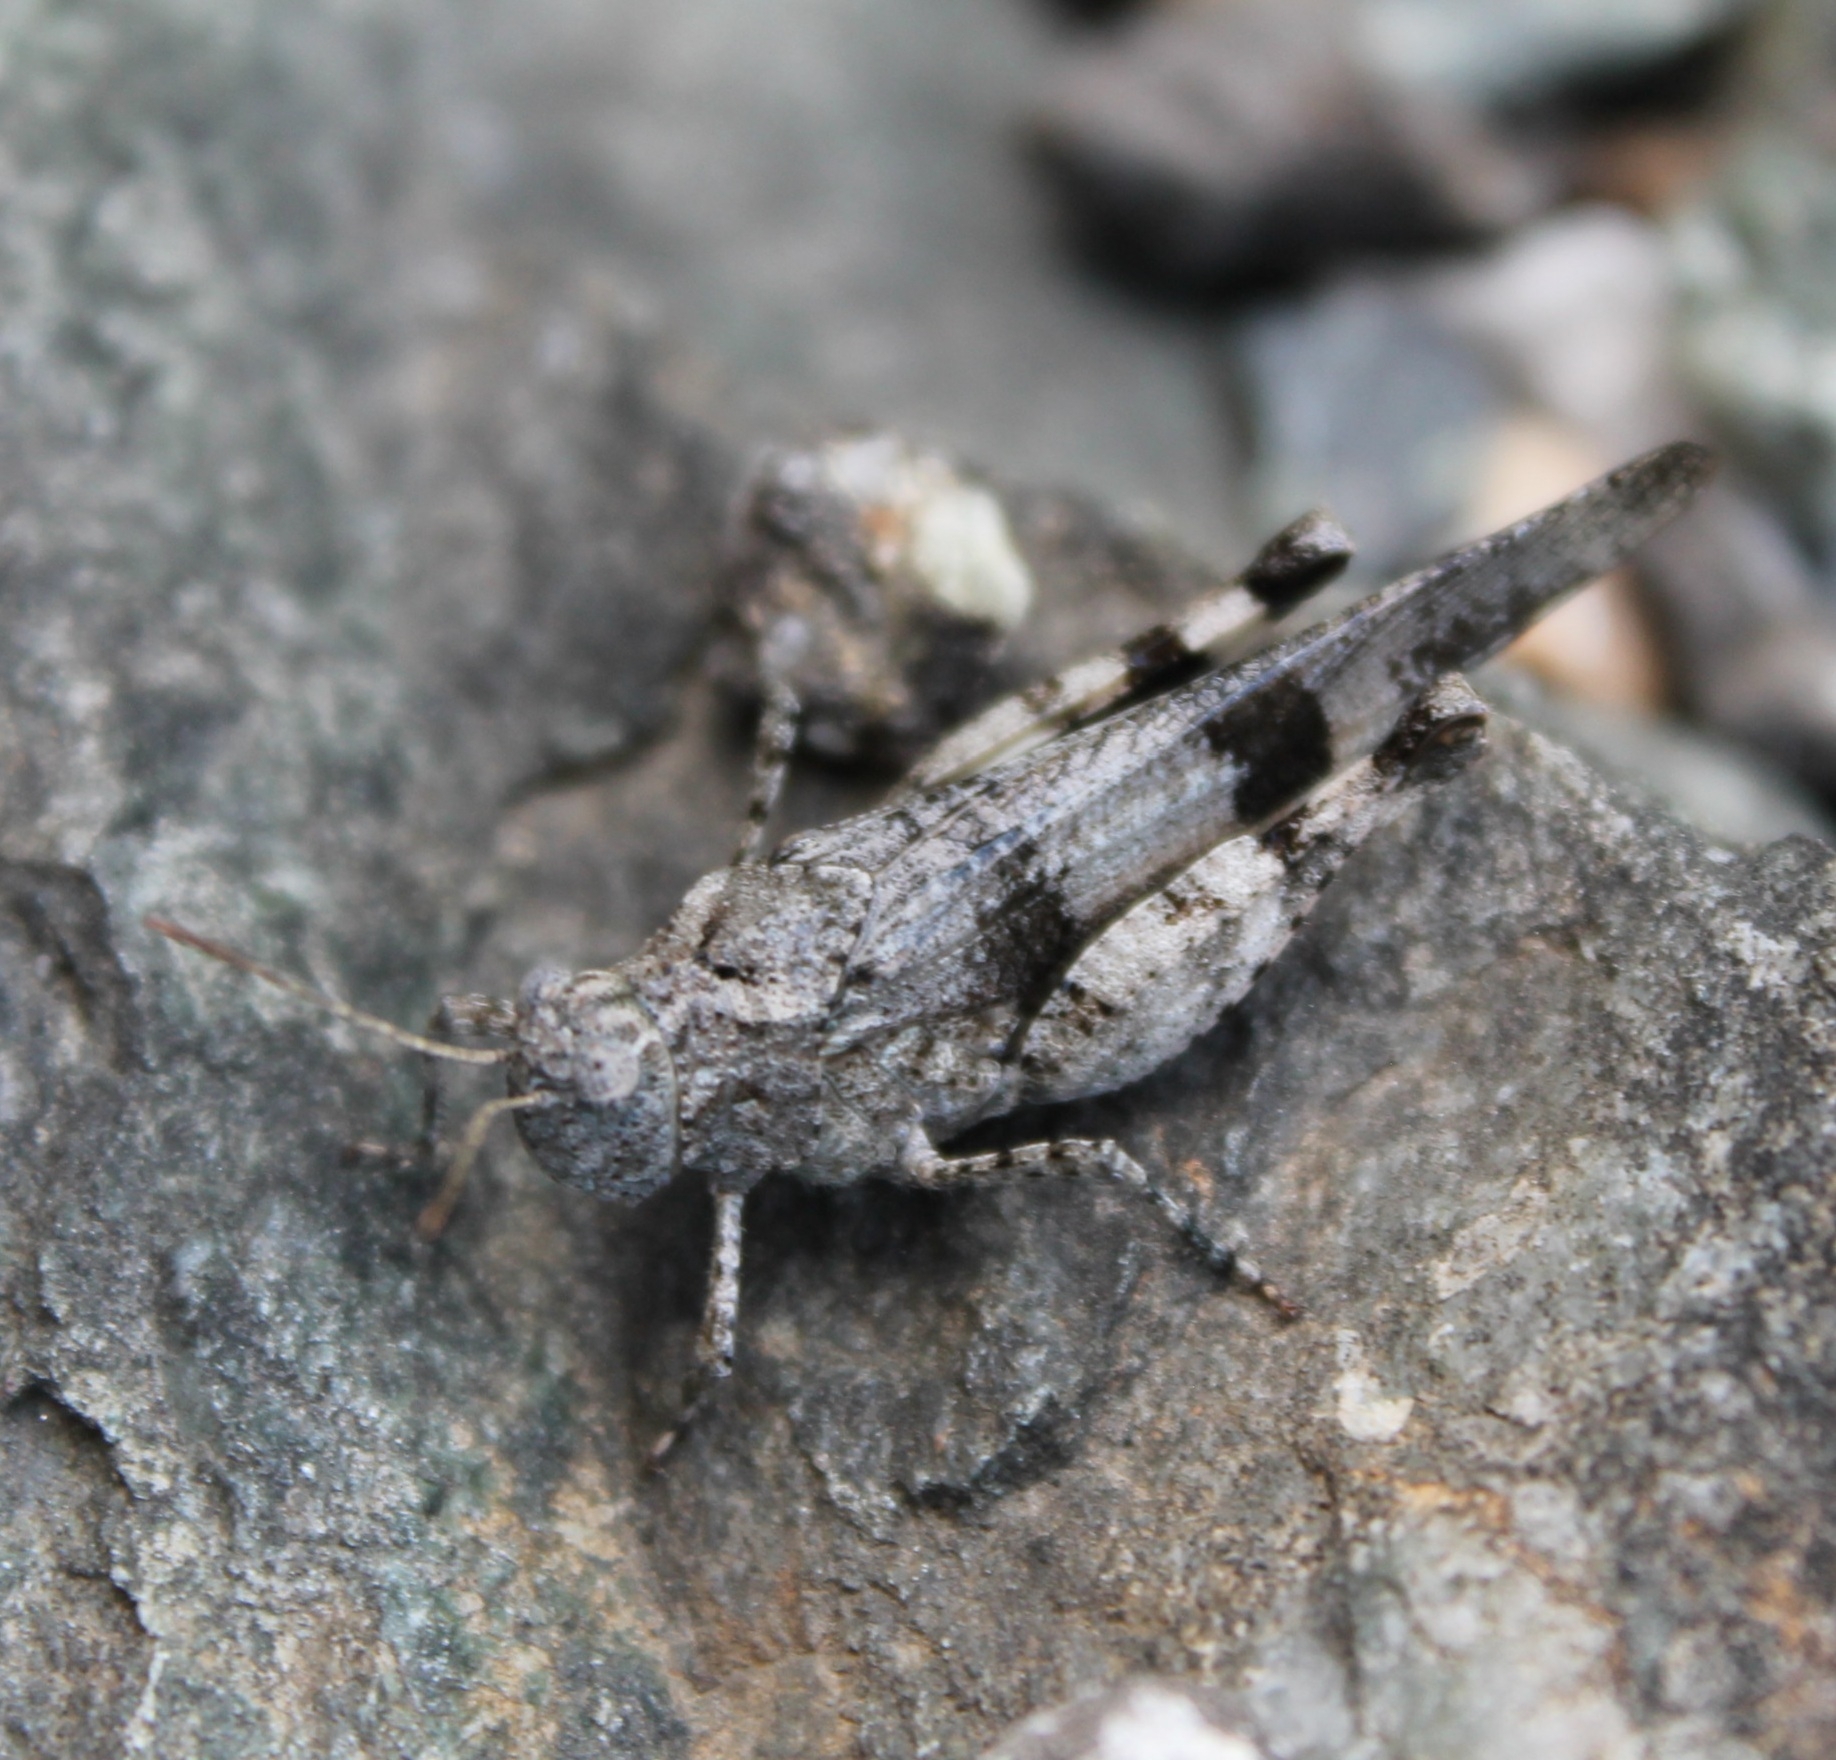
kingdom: Animalia
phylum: Arthropoda
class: Insecta
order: Orthoptera
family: Acrididae
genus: Oedipoda
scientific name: Oedipoda caerulescens
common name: Blue-winged grasshopper
